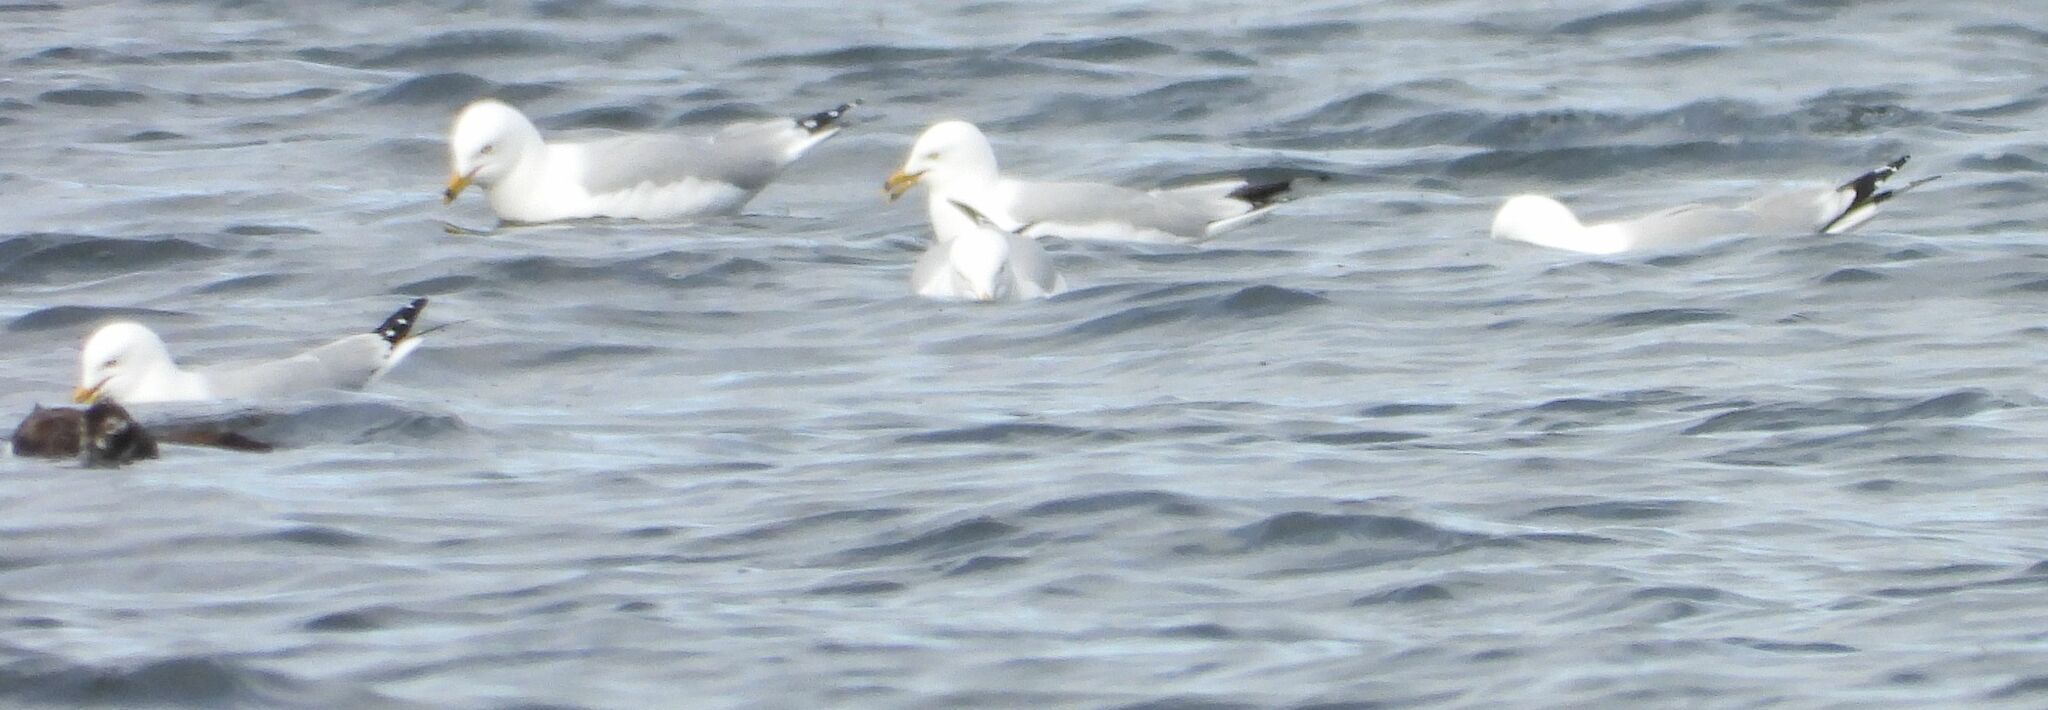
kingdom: Animalia
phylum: Chordata
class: Aves
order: Charadriiformes
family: Laridae
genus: Larus
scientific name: Larus delawarensis
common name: Ring-billed gull
